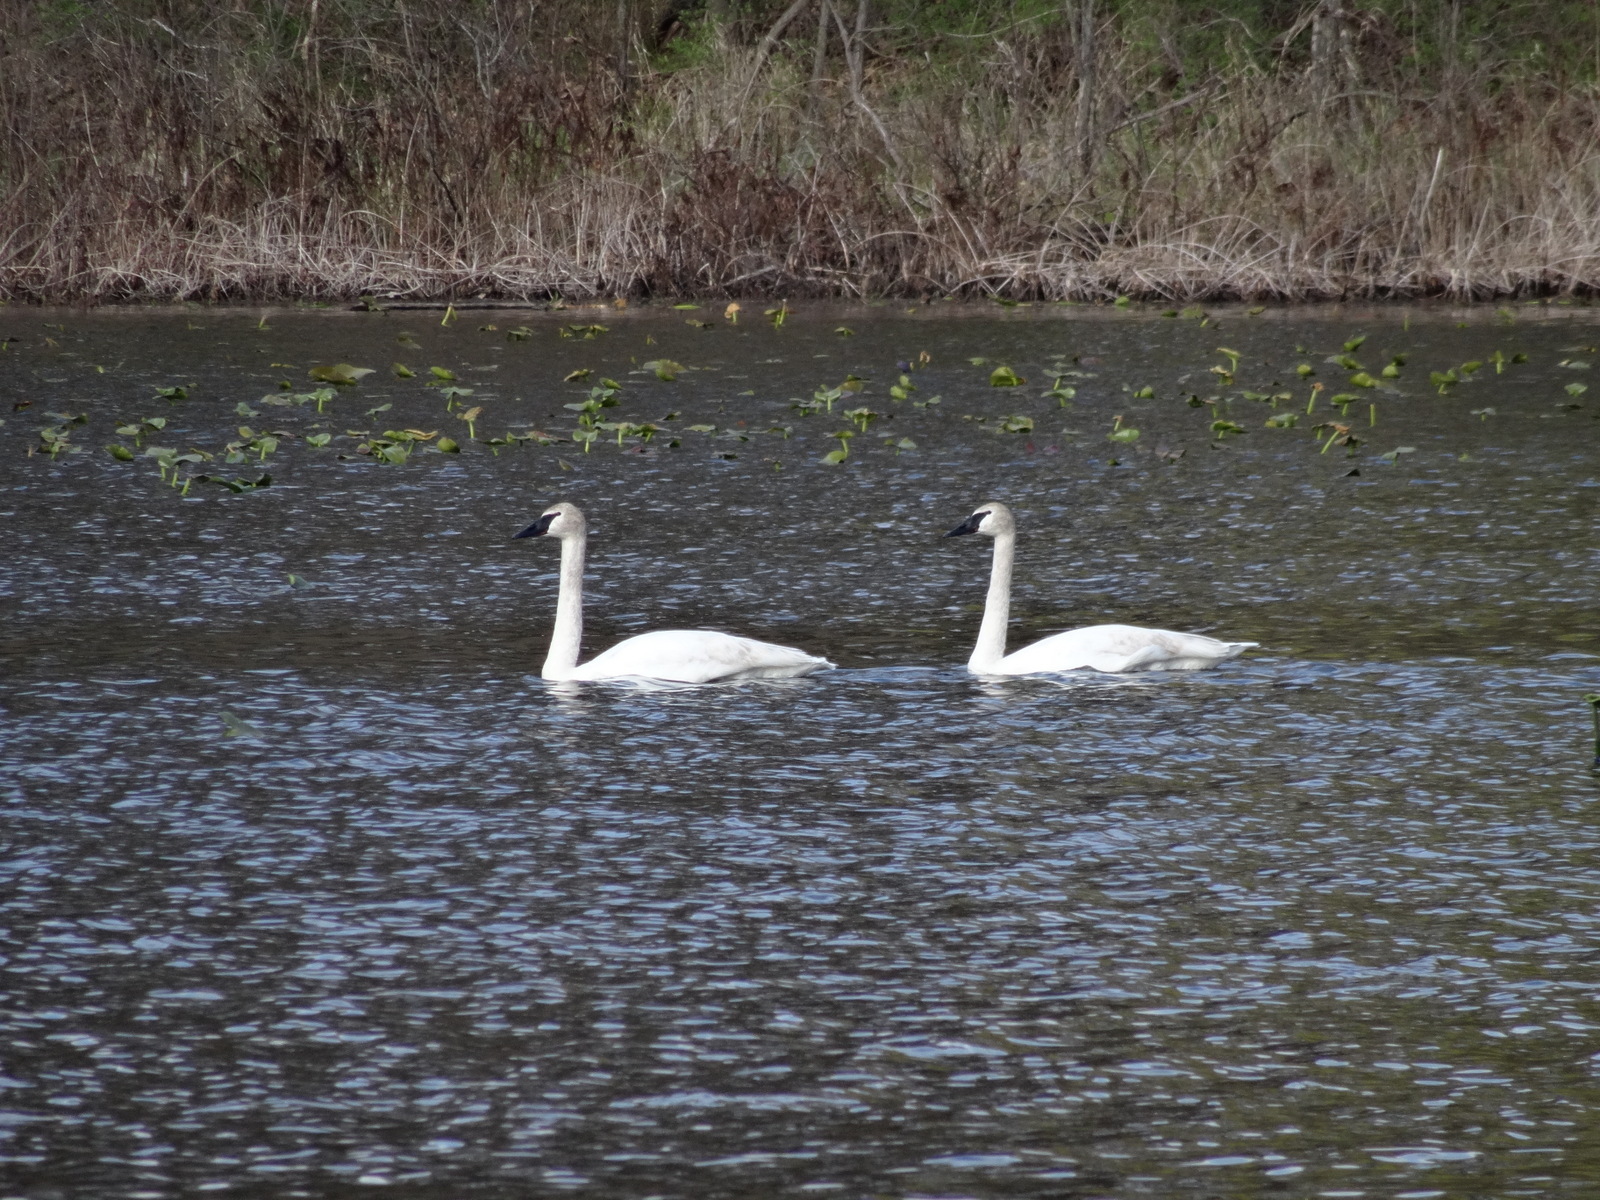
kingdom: Animalia
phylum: Chordata
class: Aves
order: Anseriformes
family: Anatidae
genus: Cygnus
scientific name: Cygnus buccinator
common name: Trumpeter swan
